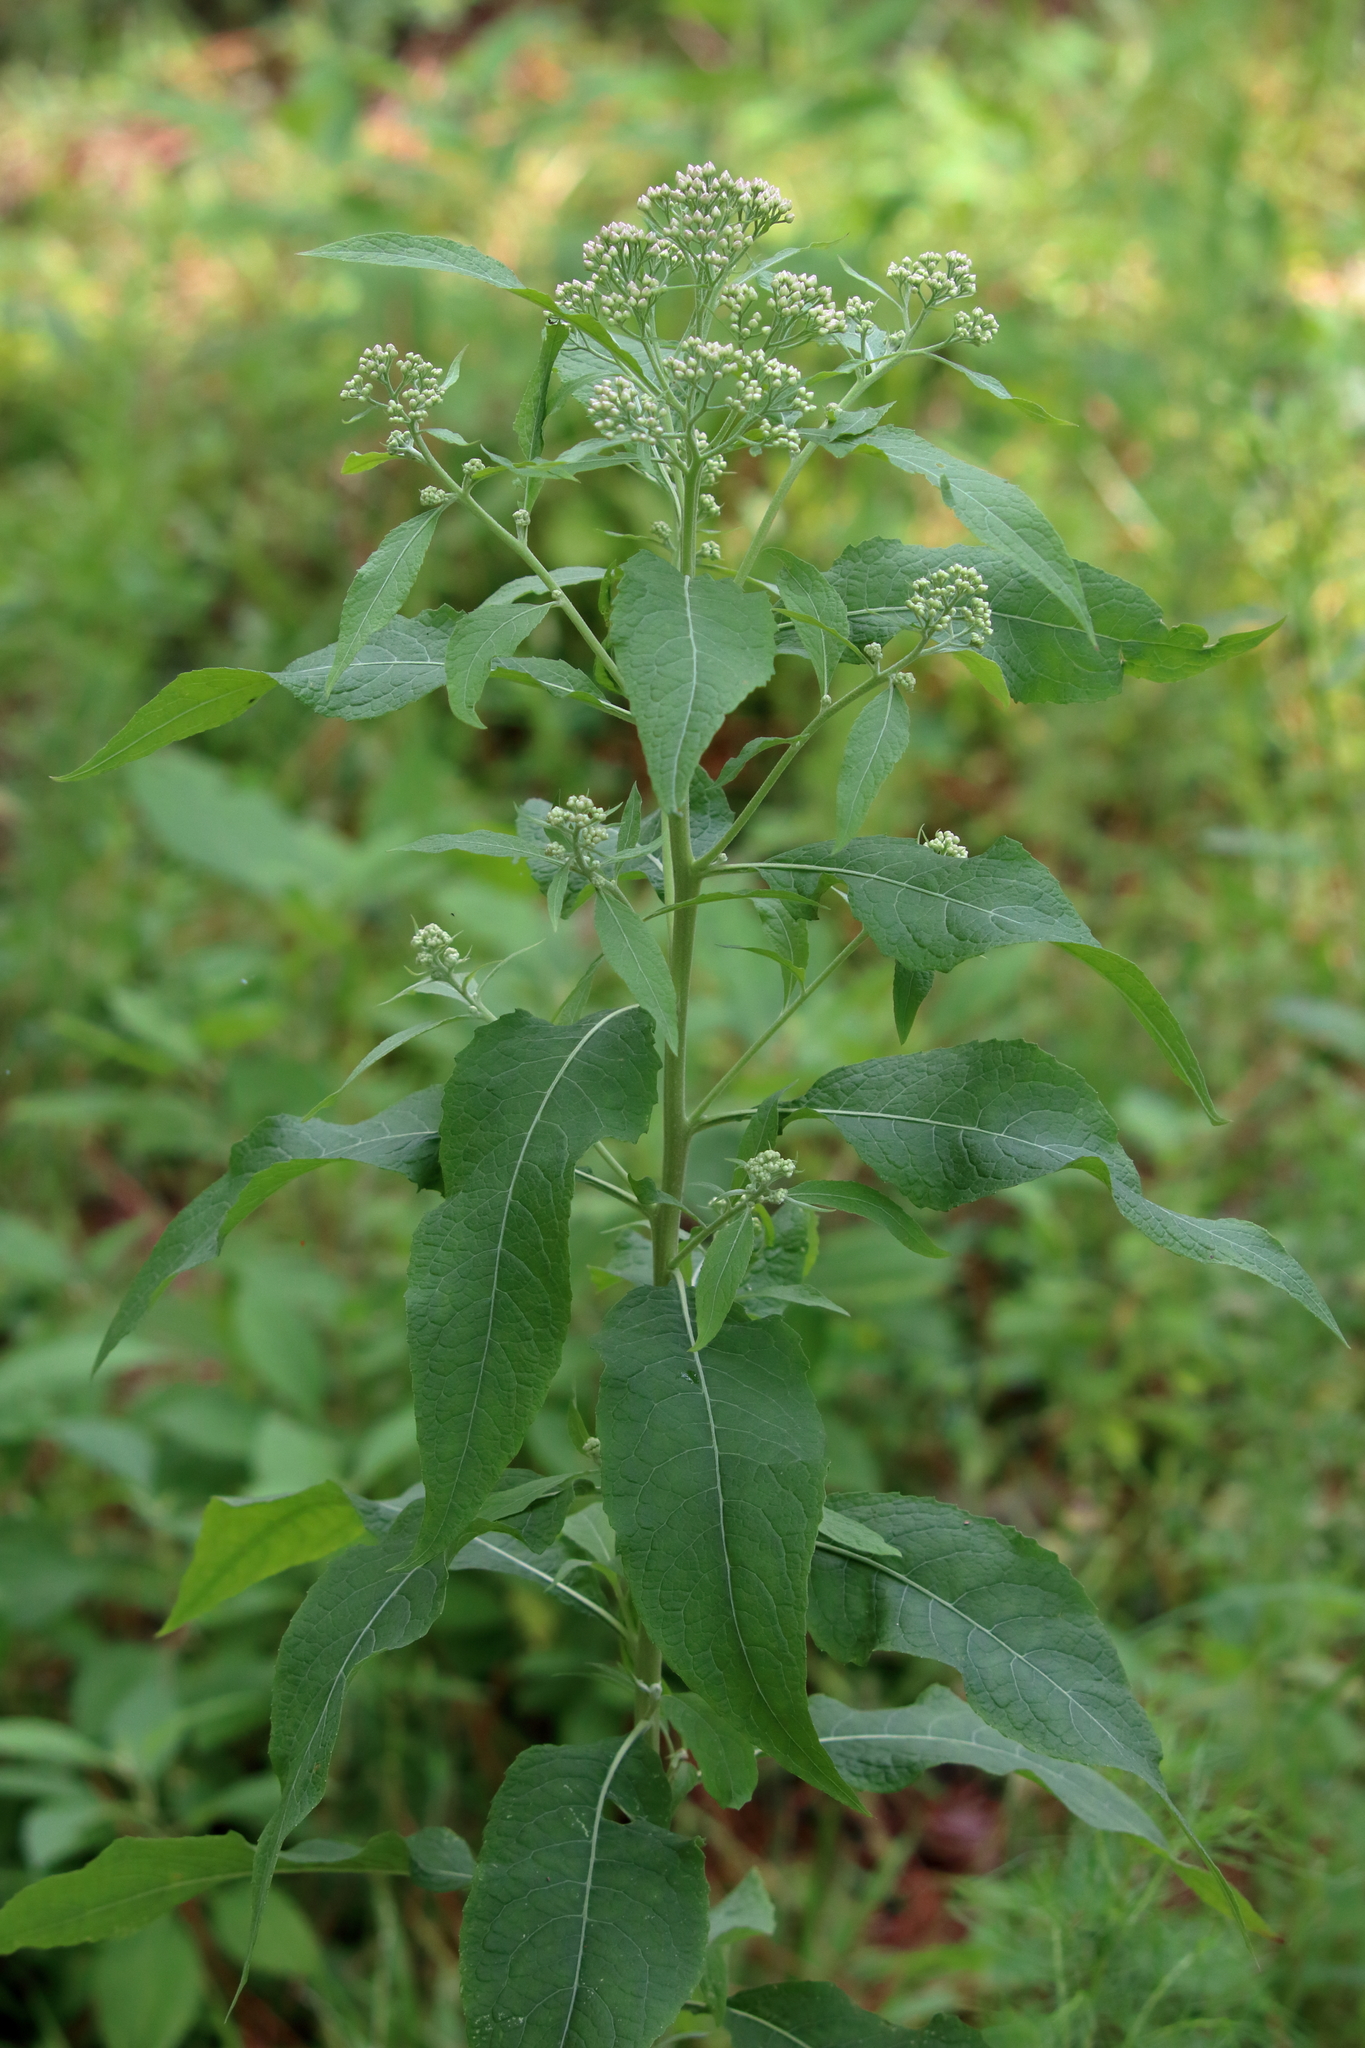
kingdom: Plantae
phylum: Tracheophyta
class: Magnoliopsida
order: Asterales
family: Asteraceae
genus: Pluchea
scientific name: Pluchea camphorata
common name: Camphor pluchea
